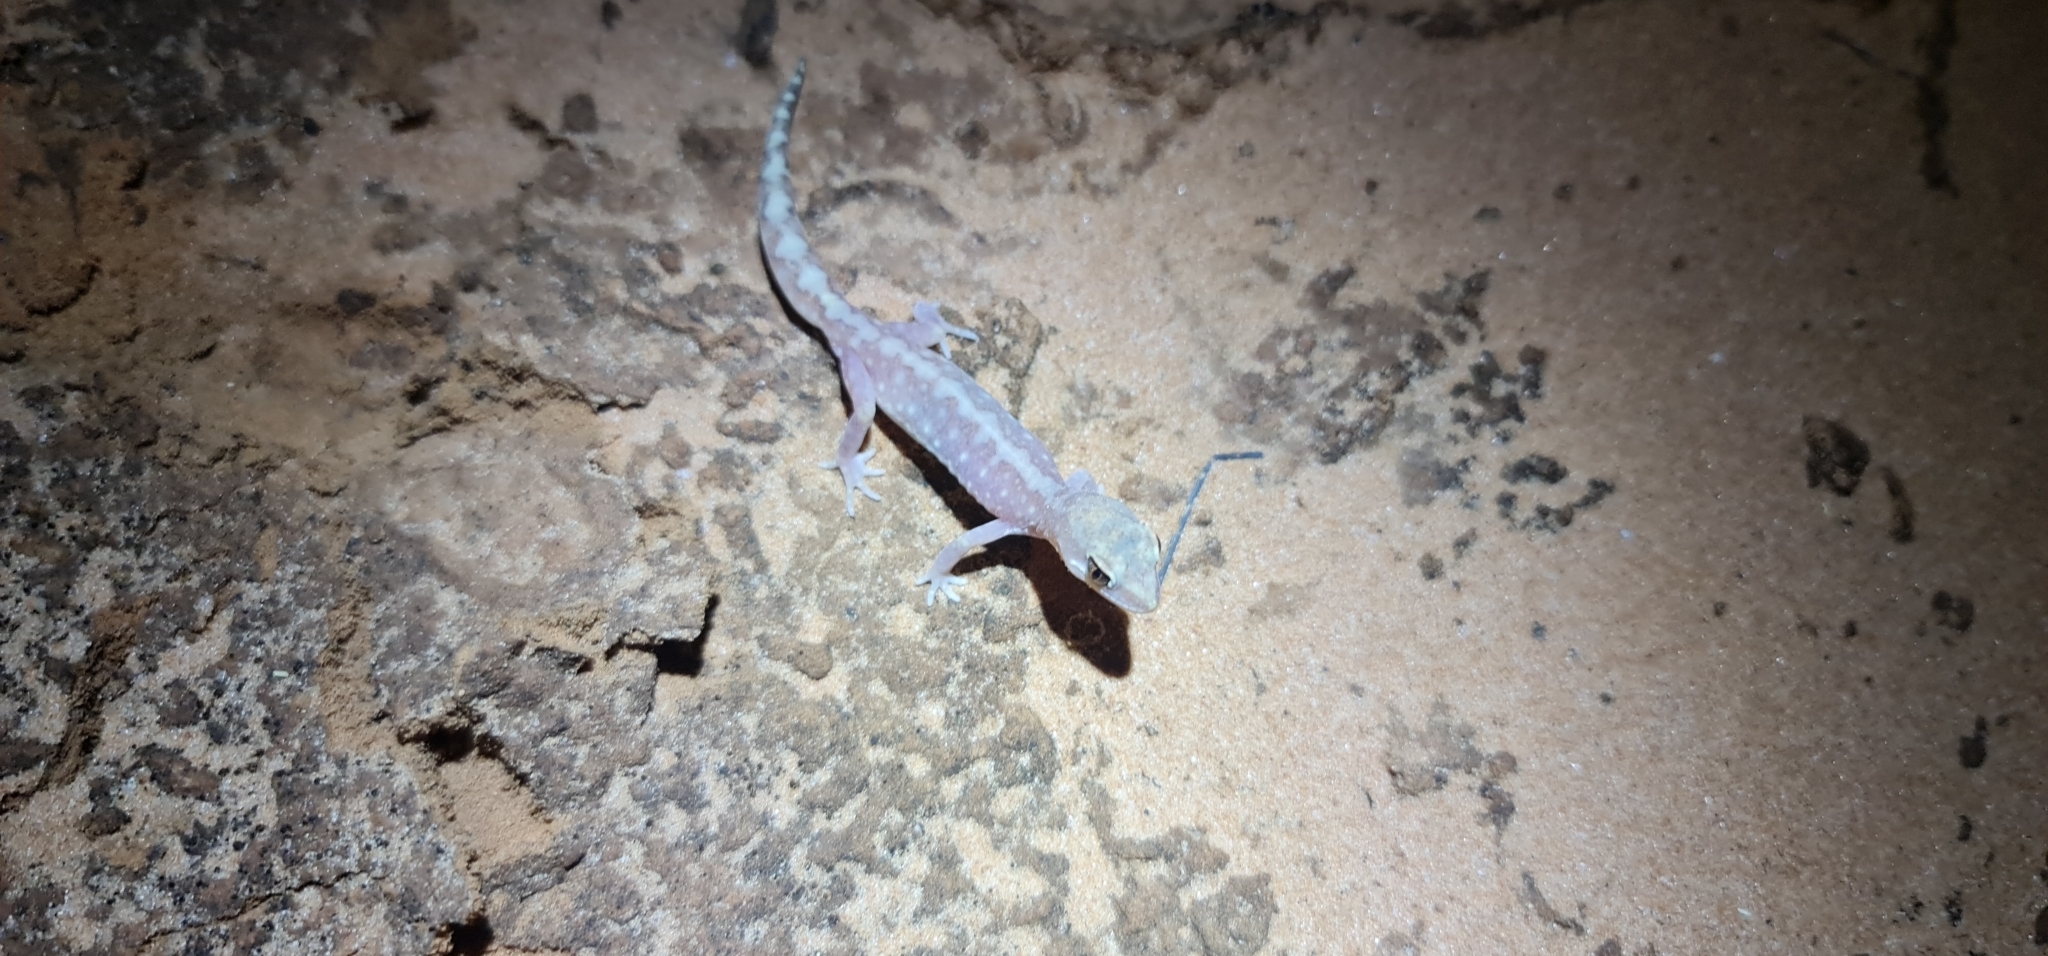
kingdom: Animalia
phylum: Chordata
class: Squamata
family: Diplodactylidae
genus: Lucasium
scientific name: Lucasium damaeum
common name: Beaded gecko
